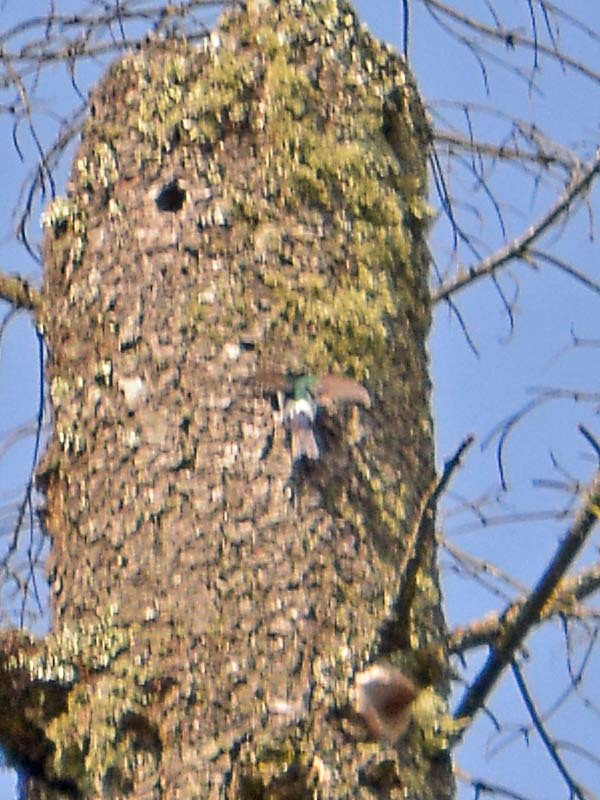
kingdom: Animalia
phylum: Chordata
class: Aves
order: Passeriformes
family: Hirundinidae
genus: Tachycineta
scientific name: Tachycineta thalassina
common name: Violet-green swallow
